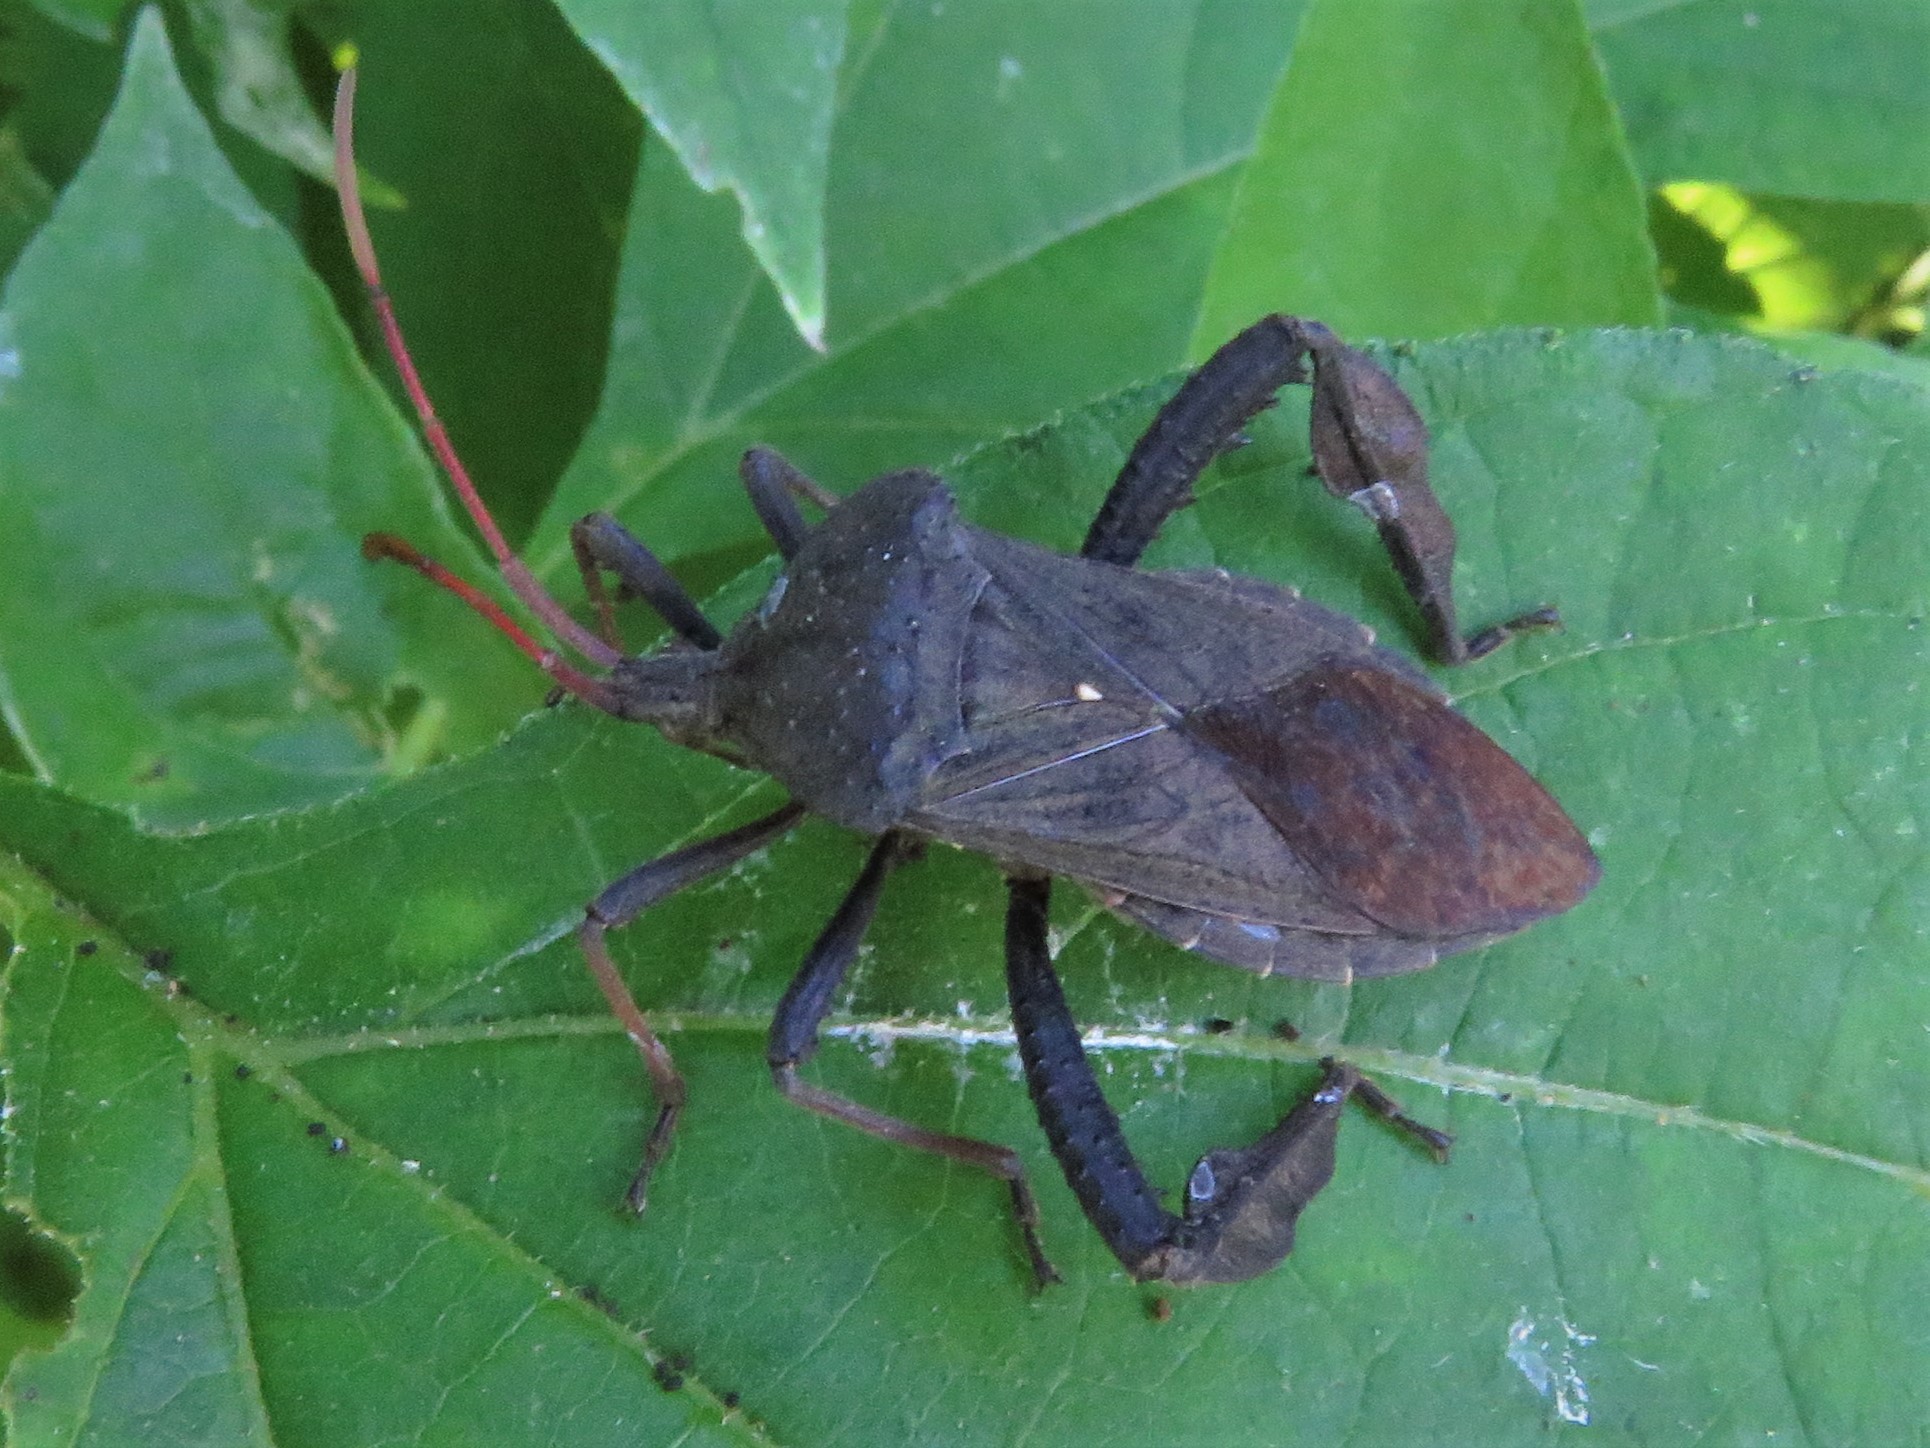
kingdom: Animalia
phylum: Arthropoda
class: Insecta
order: Hemiptera
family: Coreidae
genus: Acanthocephala
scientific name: Acanthocephala femorata
